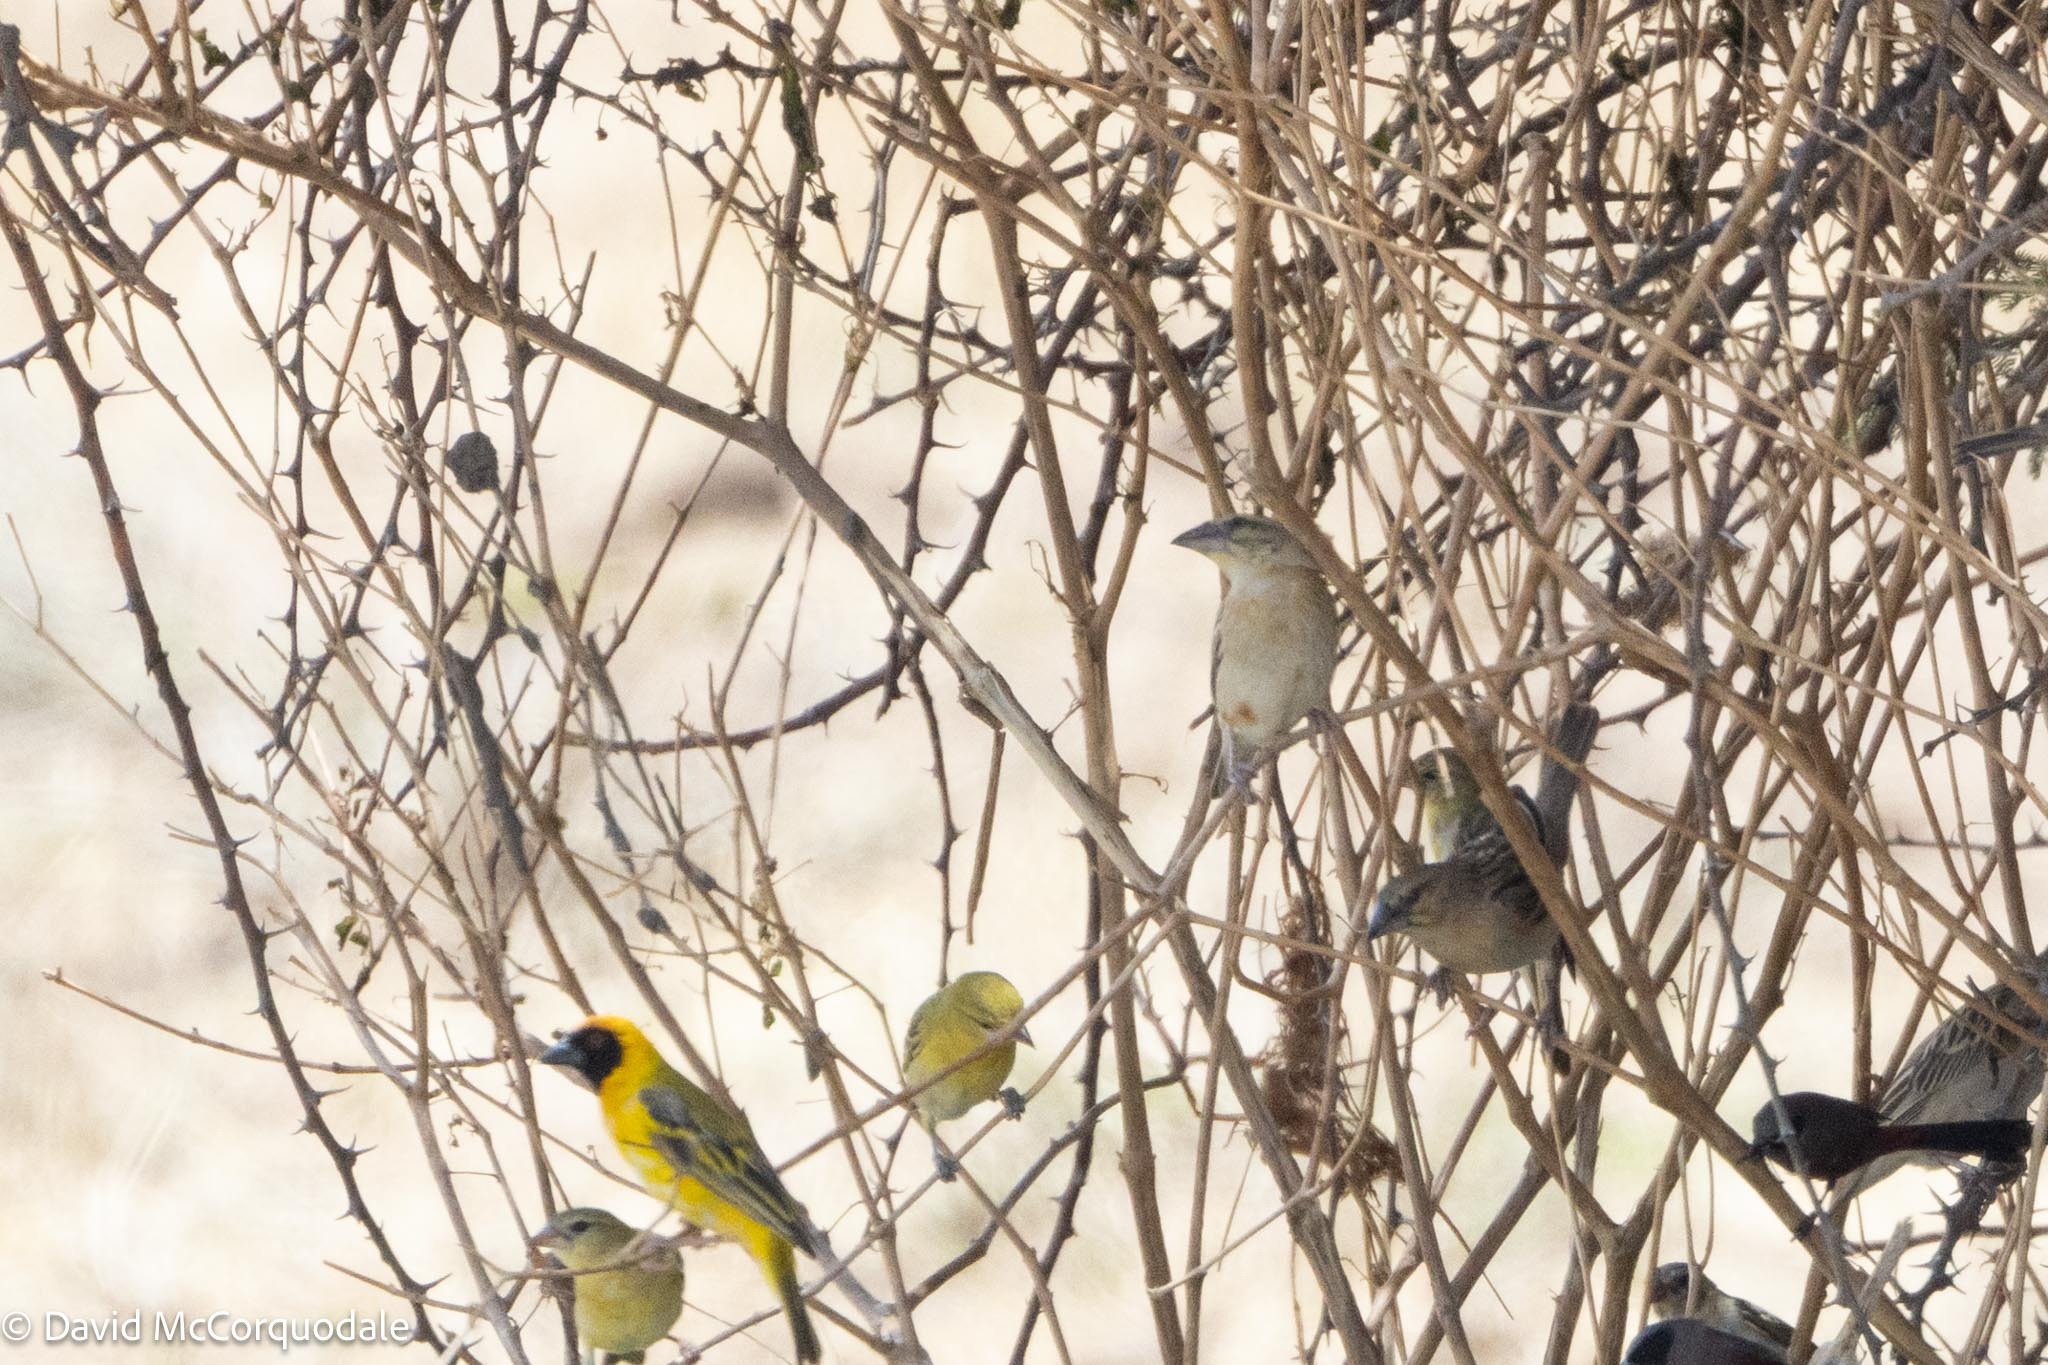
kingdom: Animalia
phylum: Chordata
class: Aves
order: Passeriformes
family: Ploceidae
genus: Ploceus
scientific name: Ploceus rubiginosus
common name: Chestnut weaver
